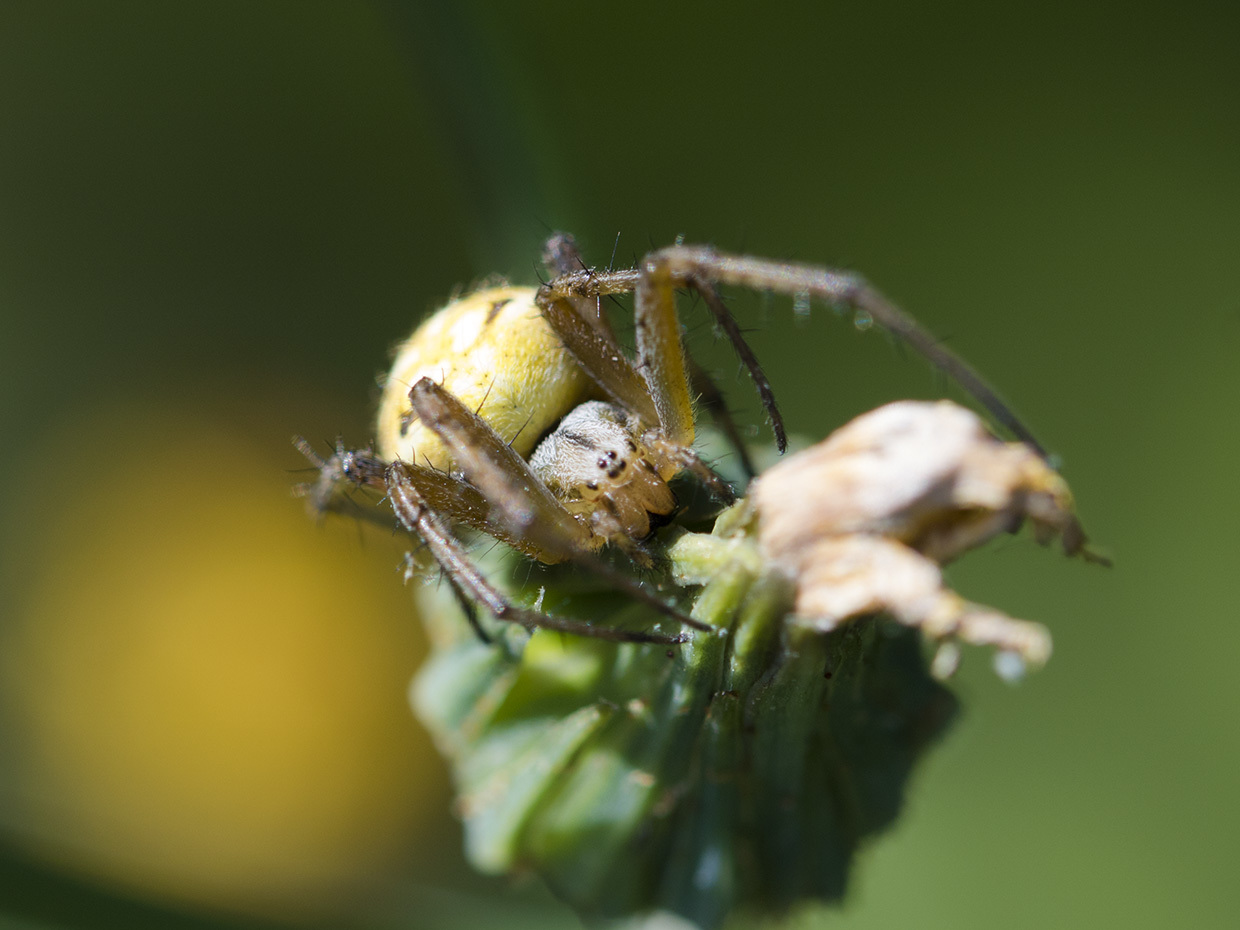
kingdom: Animalia
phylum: Arthropoda
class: Arachnida
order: Araneae
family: Araneidae
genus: Neoscona
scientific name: Neoscona adianta
